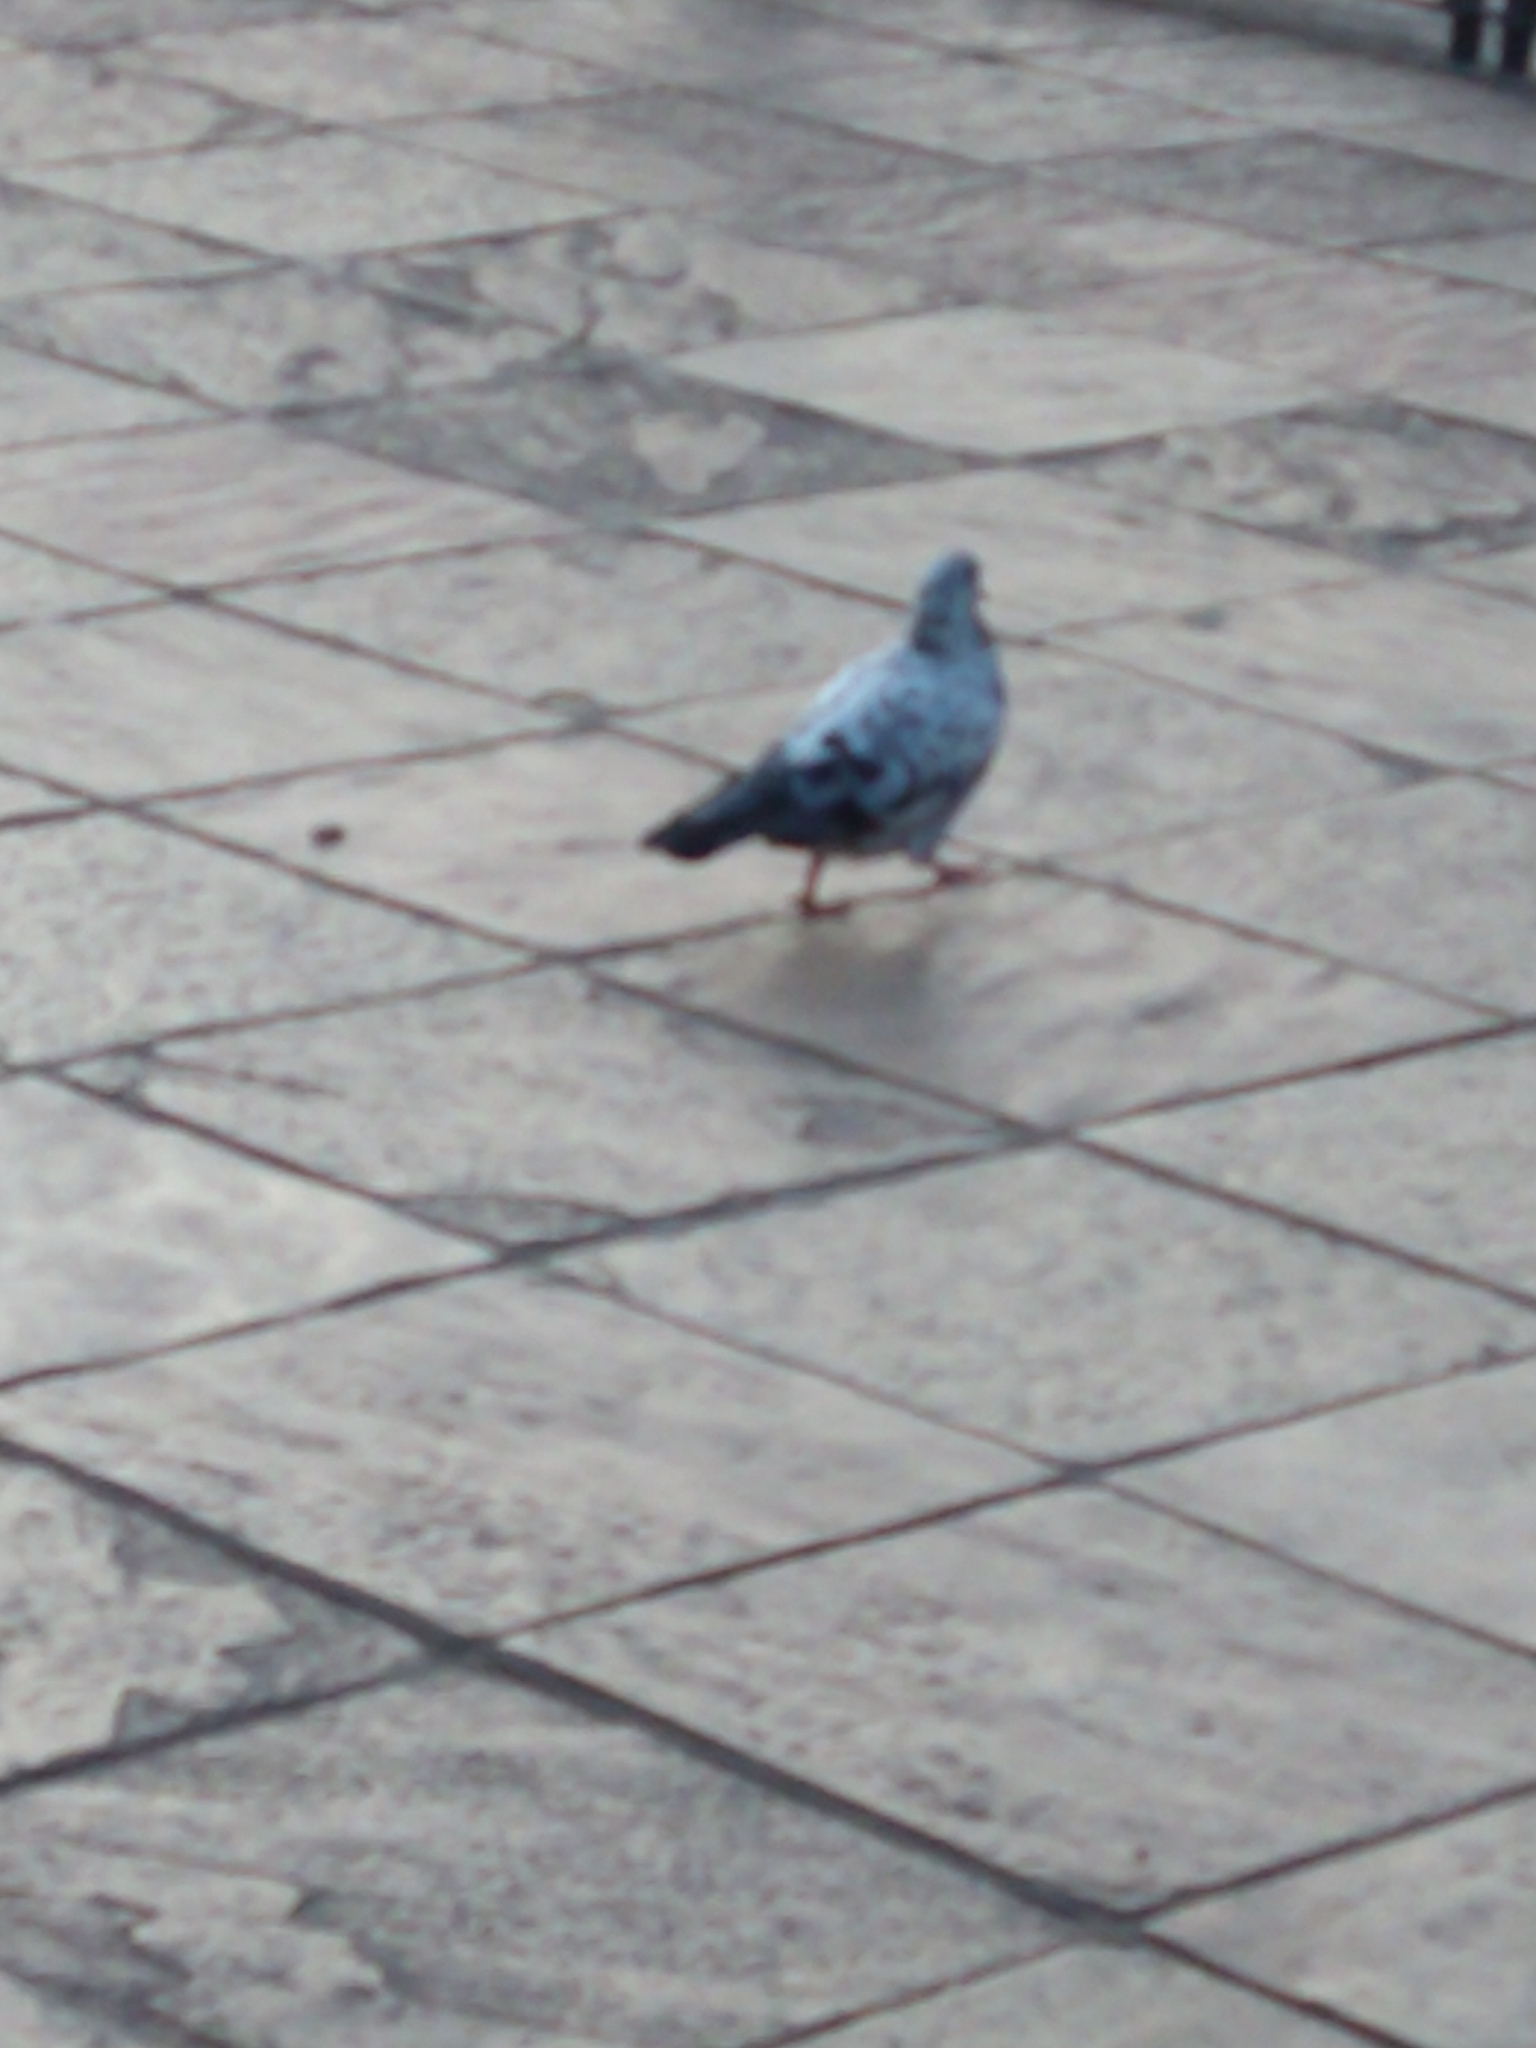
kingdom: Animalia
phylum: Chordata
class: Aves
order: Columbiformes
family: Columbidae
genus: Columba
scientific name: Columba livia
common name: Rock pigeon
